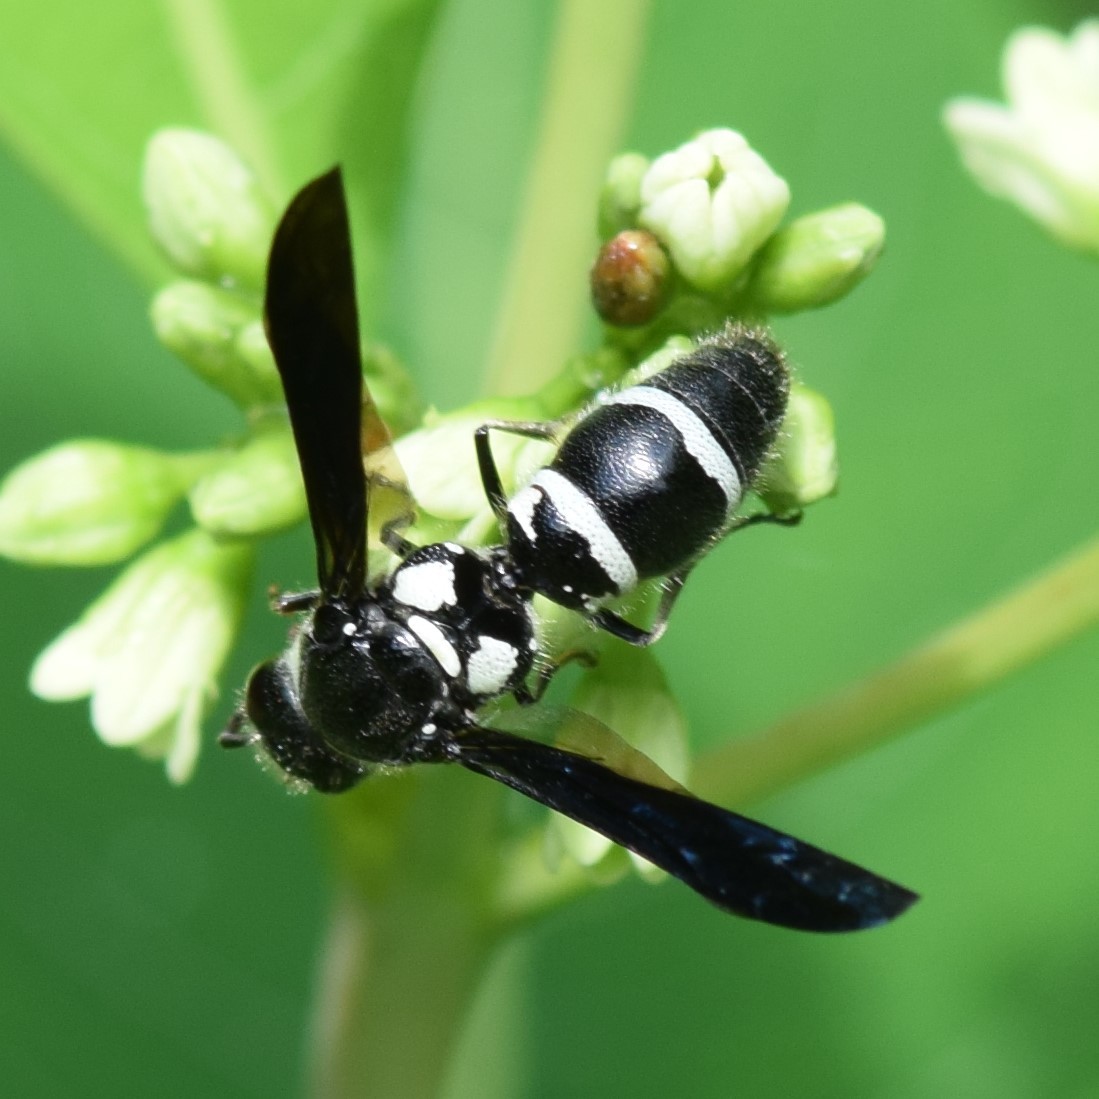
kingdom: Animalia
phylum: Arthropoda
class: Insecta
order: Hymenoptera
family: Eumenidae
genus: Pseudodynerus
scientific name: Pseudodynerus quadrisectus
